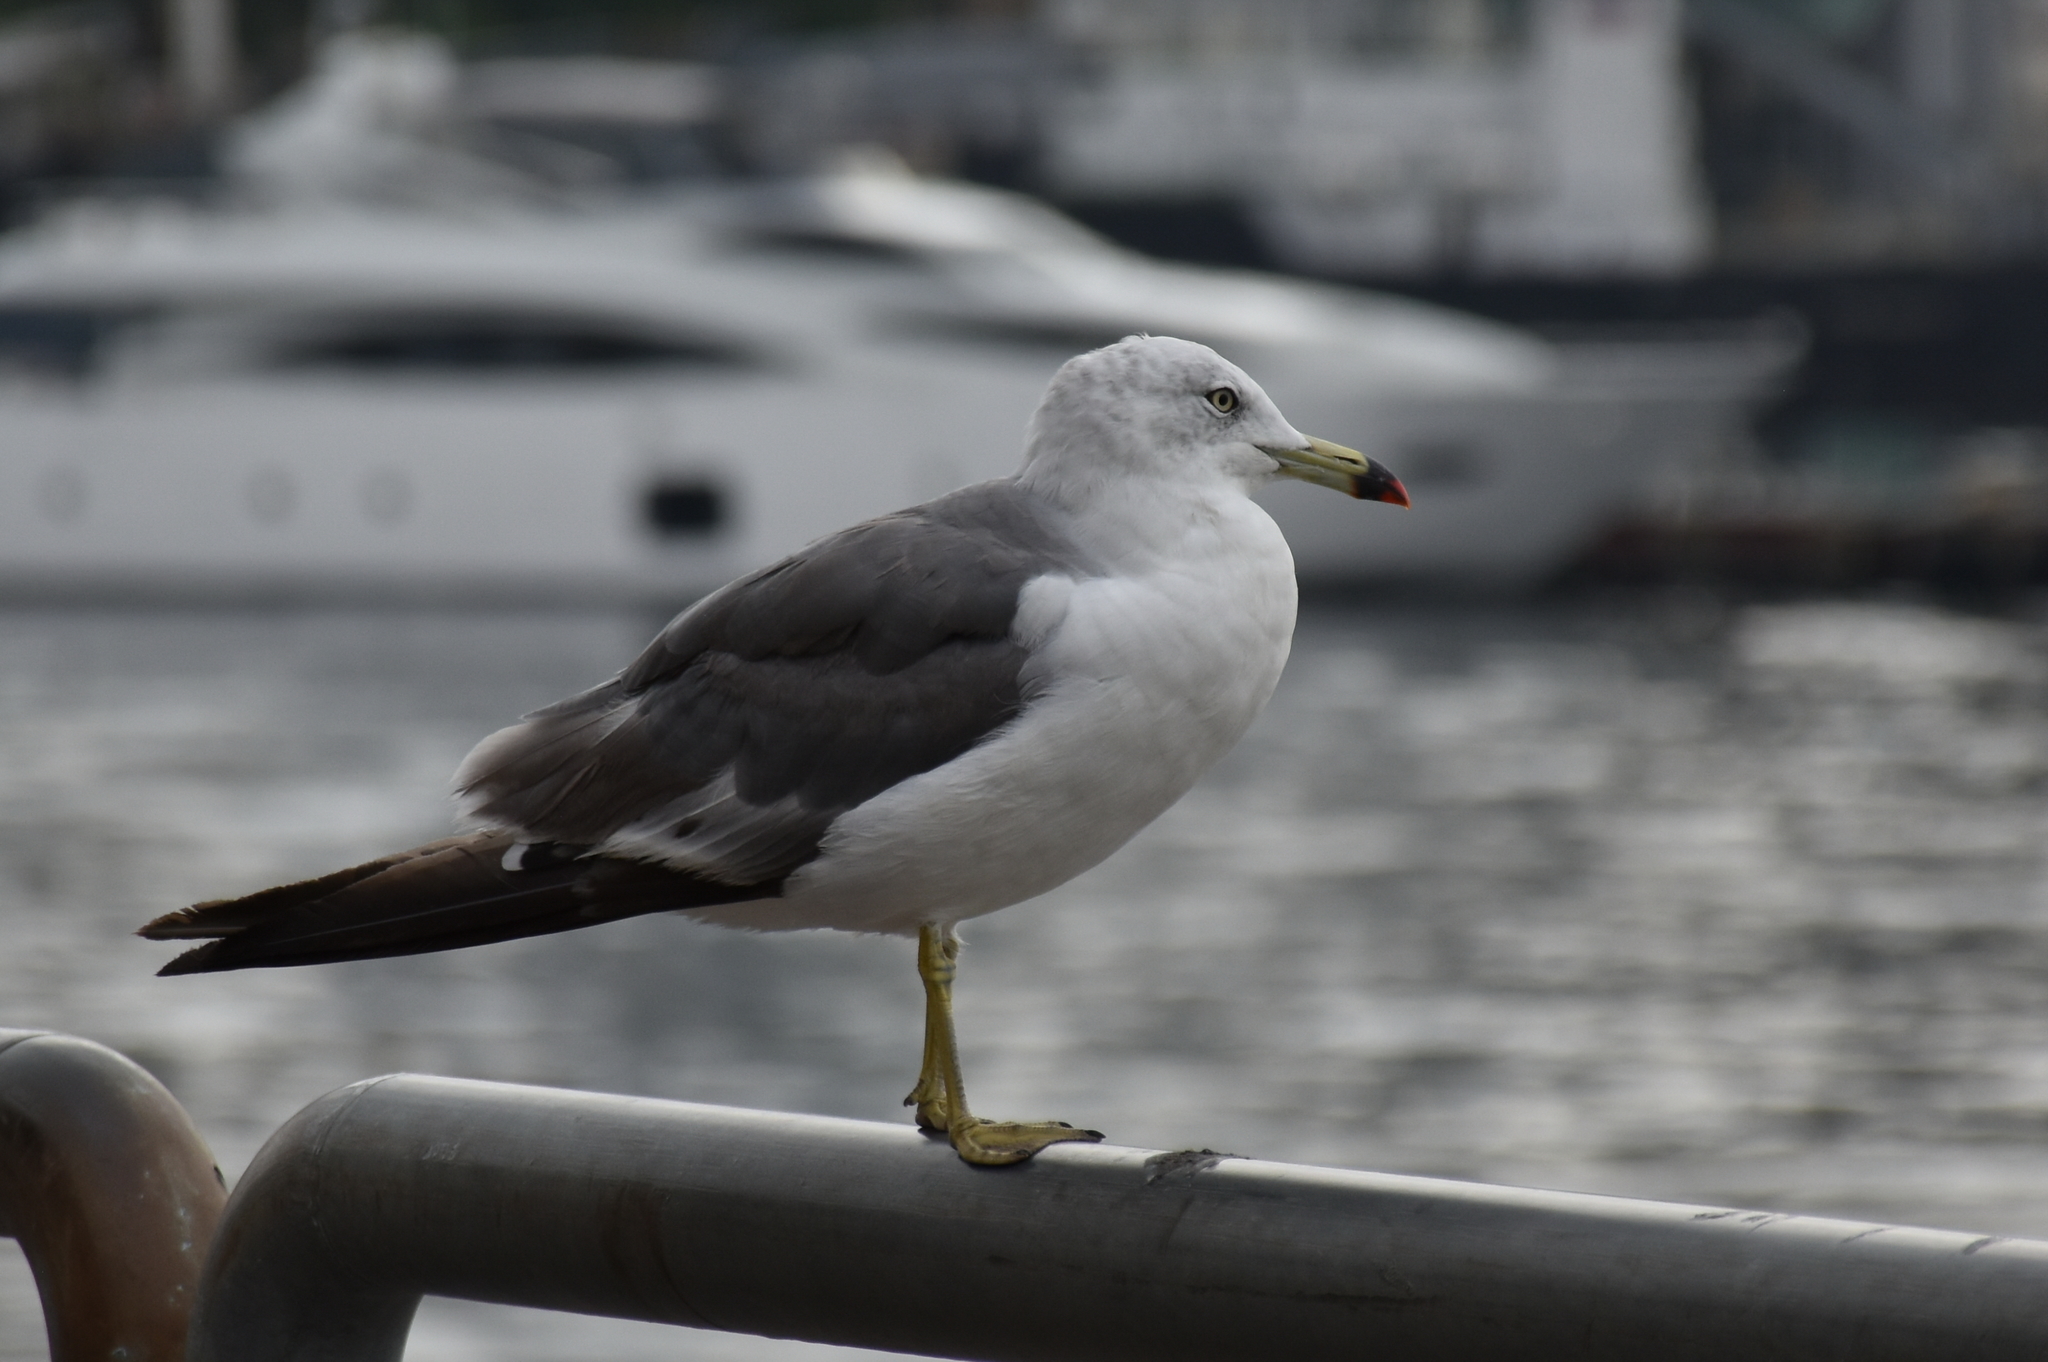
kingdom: Animalia
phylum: Chordata
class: Aves
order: Charadriiformes
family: Laridae
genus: Larus
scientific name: Larus crassirostris
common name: Black-tailed gull
